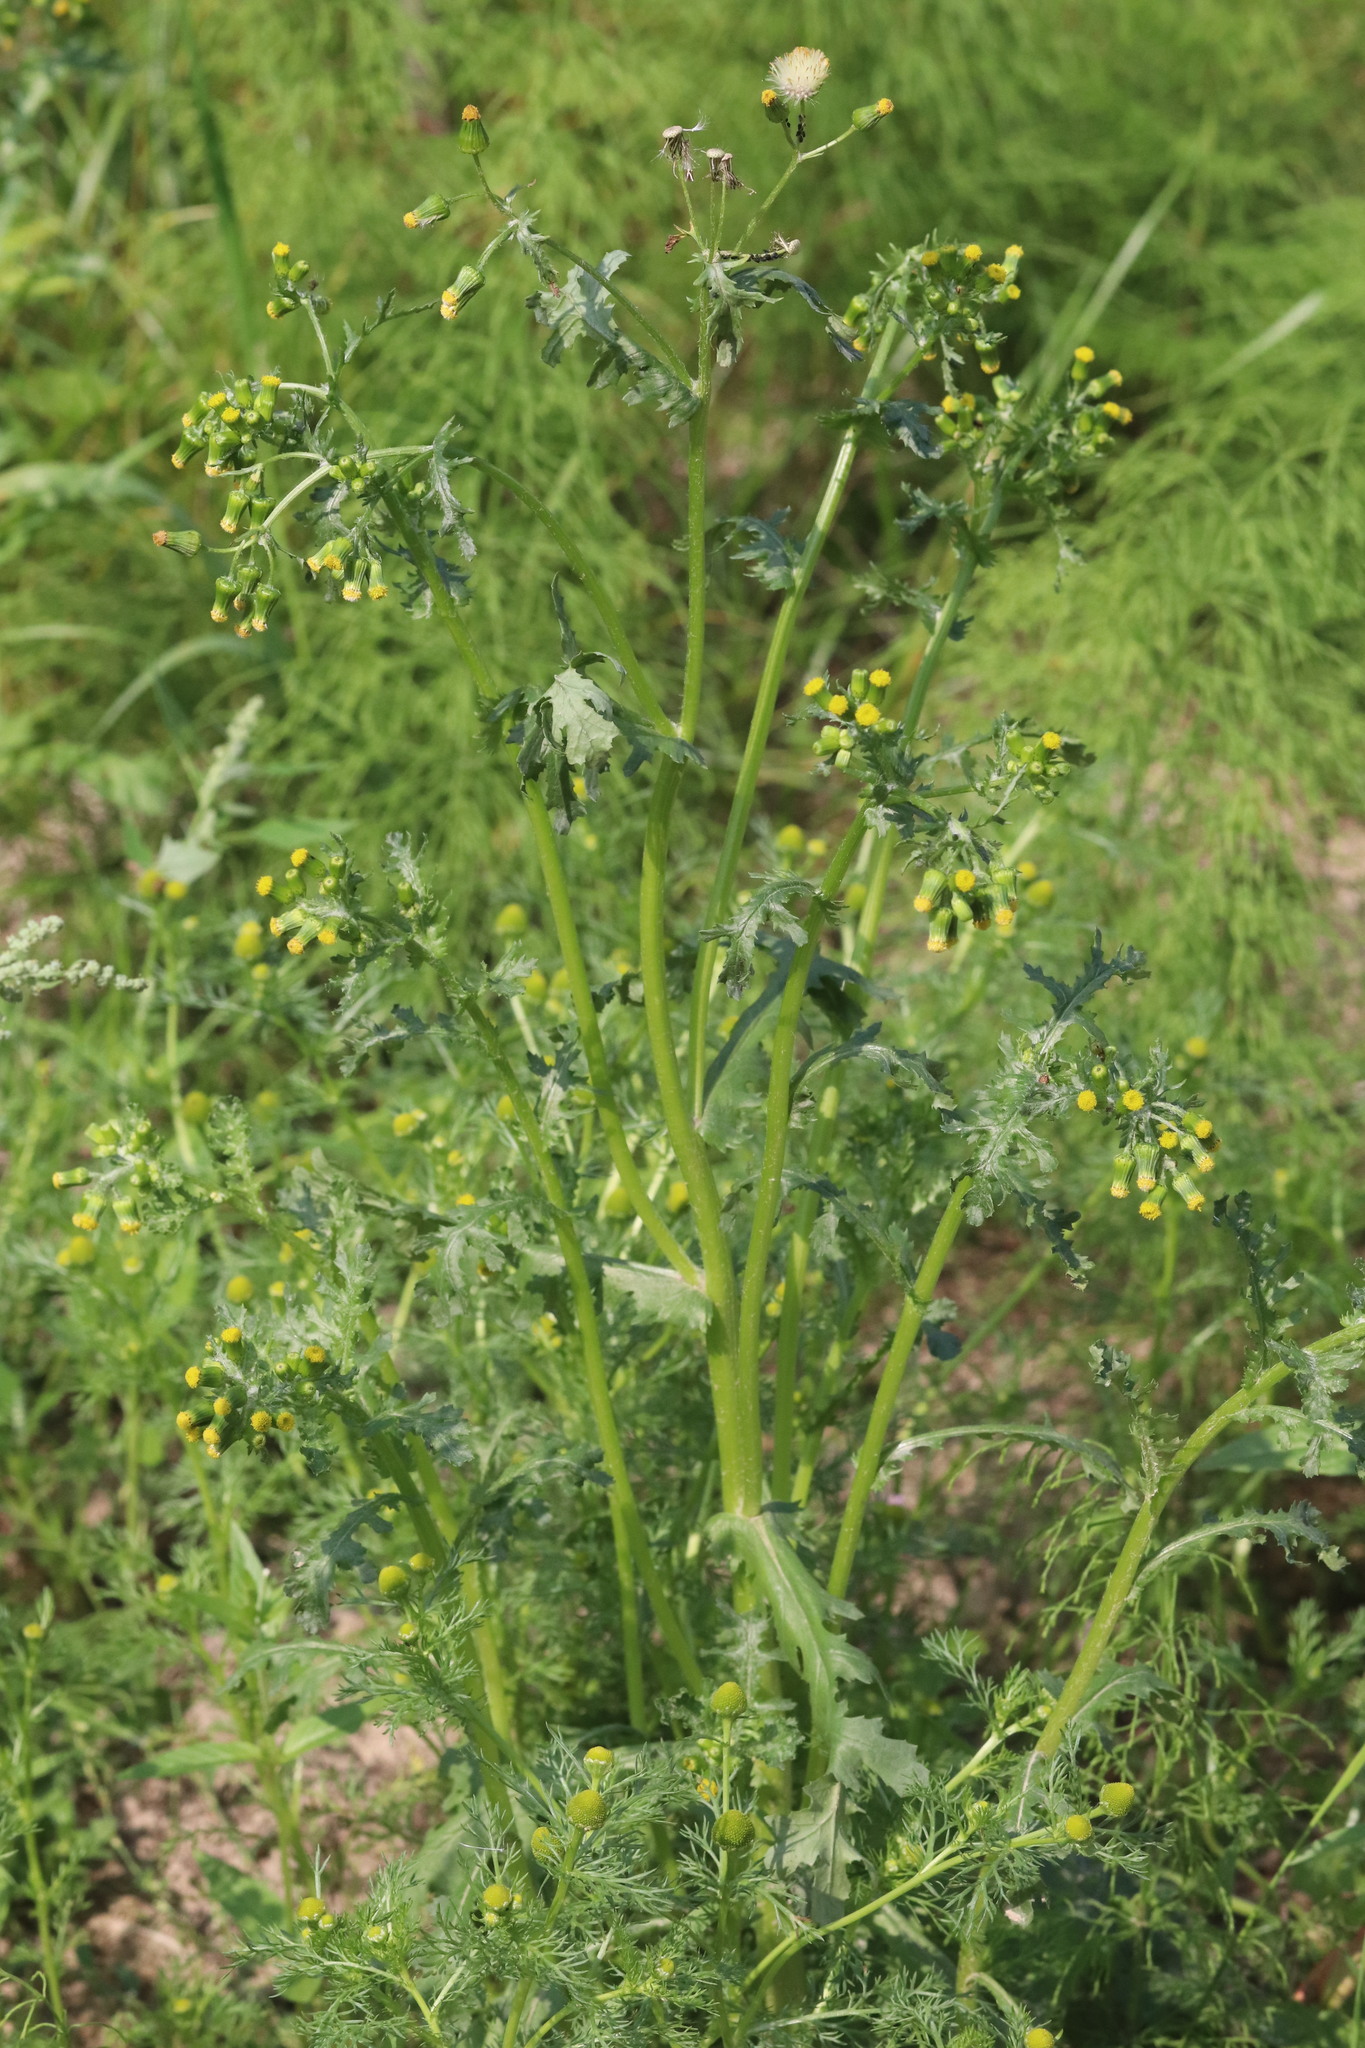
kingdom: Plantae
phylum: Tracheophyta
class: Magnoliopsida
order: Asterales
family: Asteraceae
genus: Senecio
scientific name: Senecio vulgaris
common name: Old-man-in-the-spring
